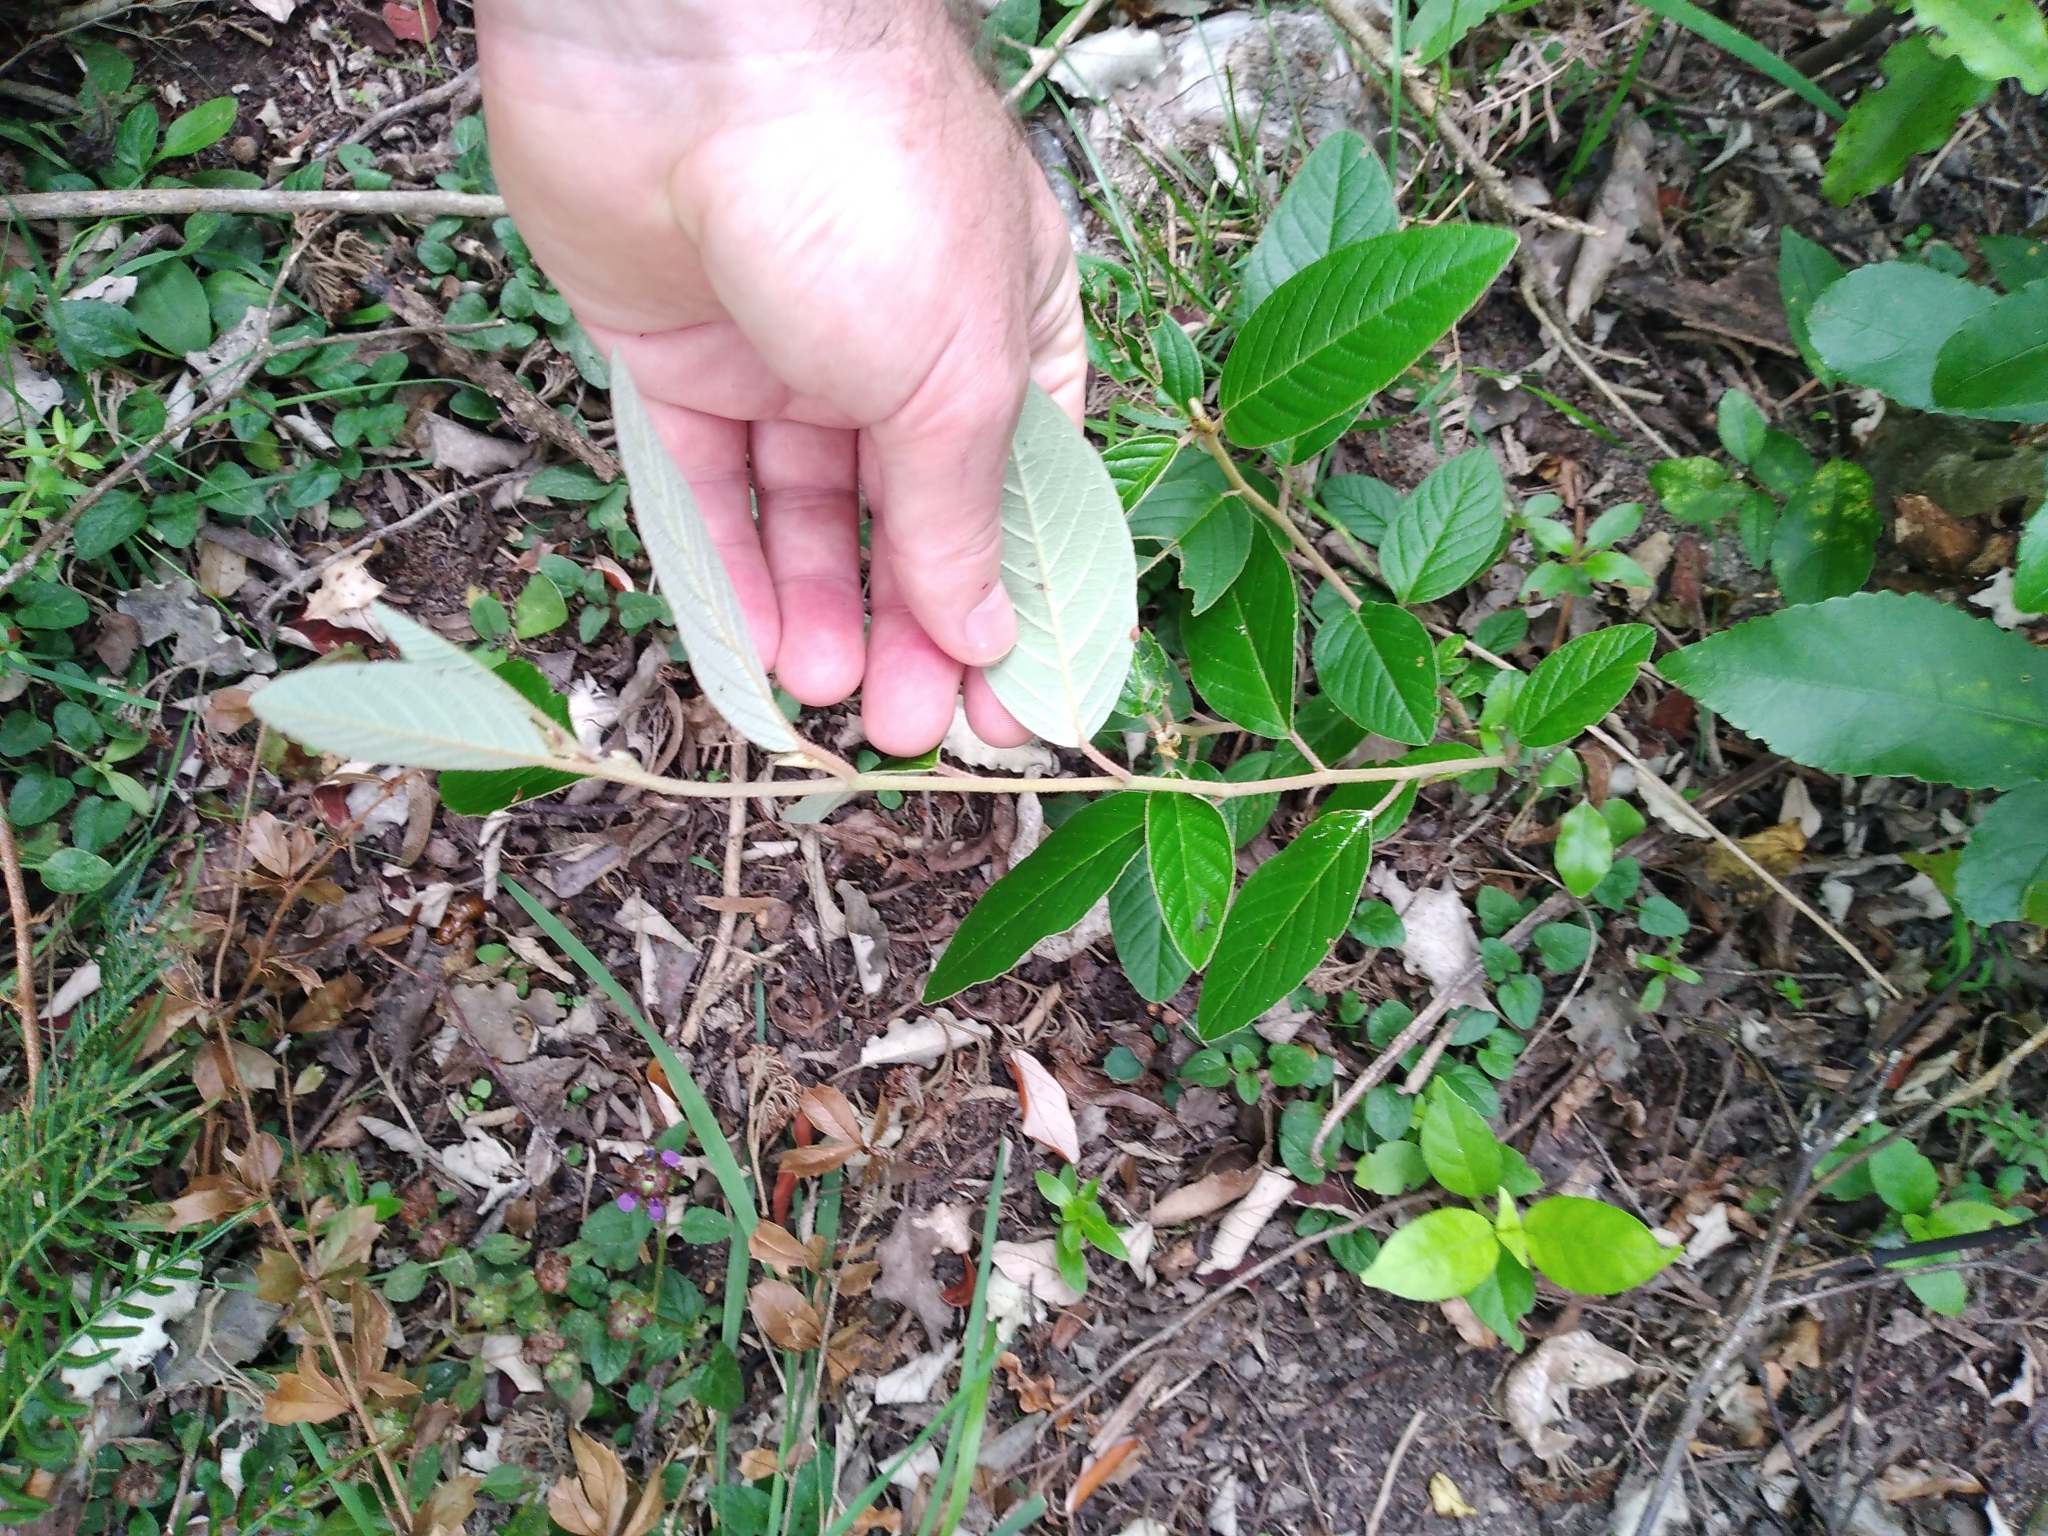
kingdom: Plantae
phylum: Tracheophyta
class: Magnoliopsida
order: Rosales
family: Rhamnaceae
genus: Pomaderris
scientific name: Pomaderris kumeraho
